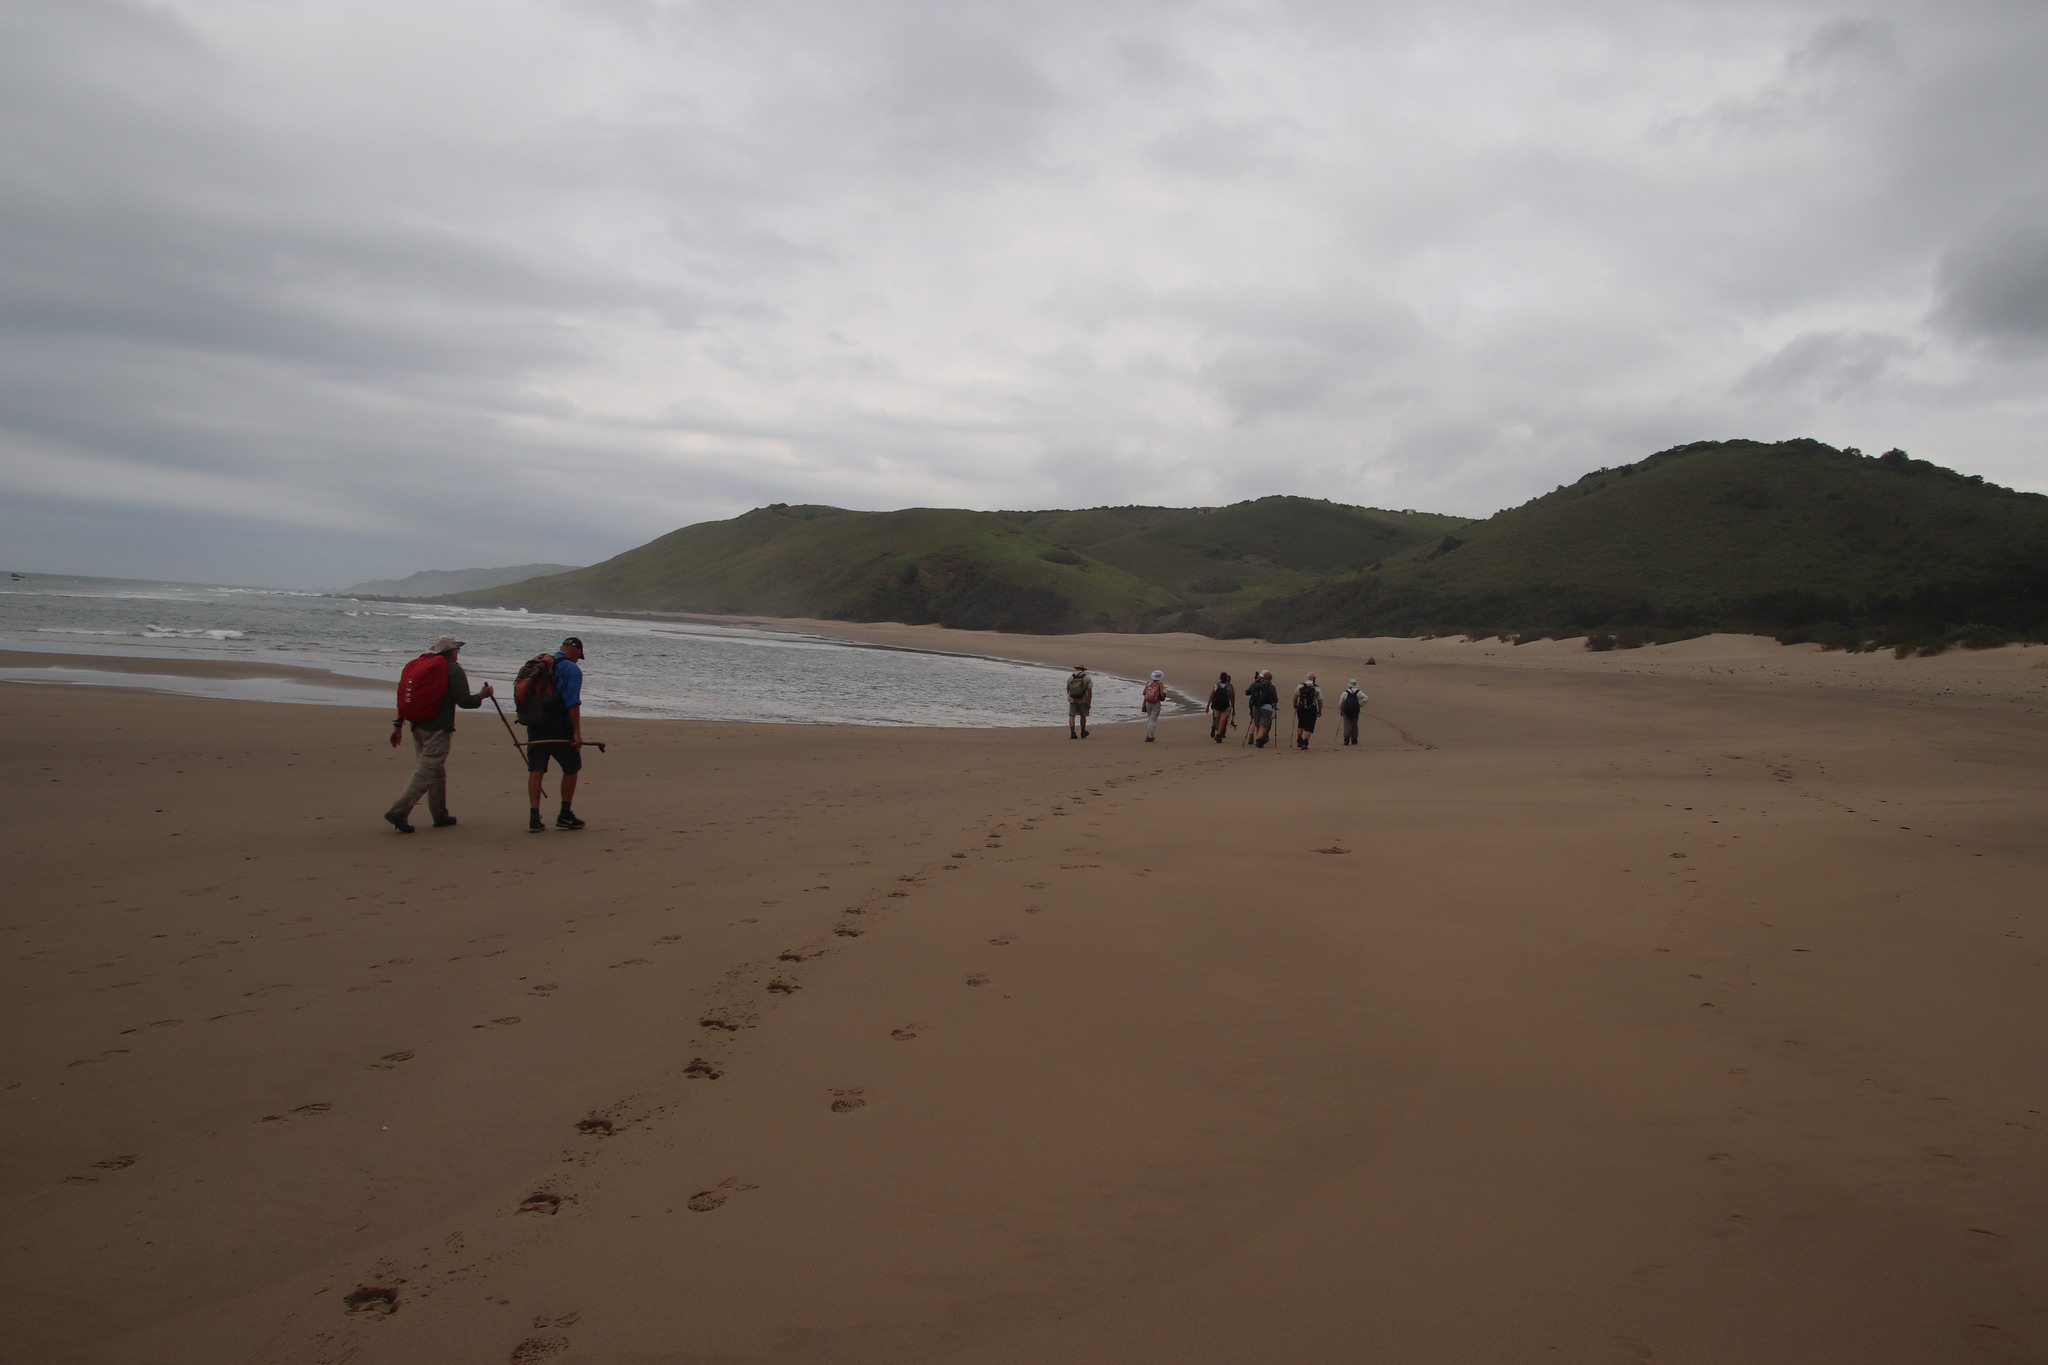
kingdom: Animalia
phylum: Arthropoda
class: Malacostraca
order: Decapoda
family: Ocypodidae
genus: Ocypode
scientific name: Ocypode ryderi
